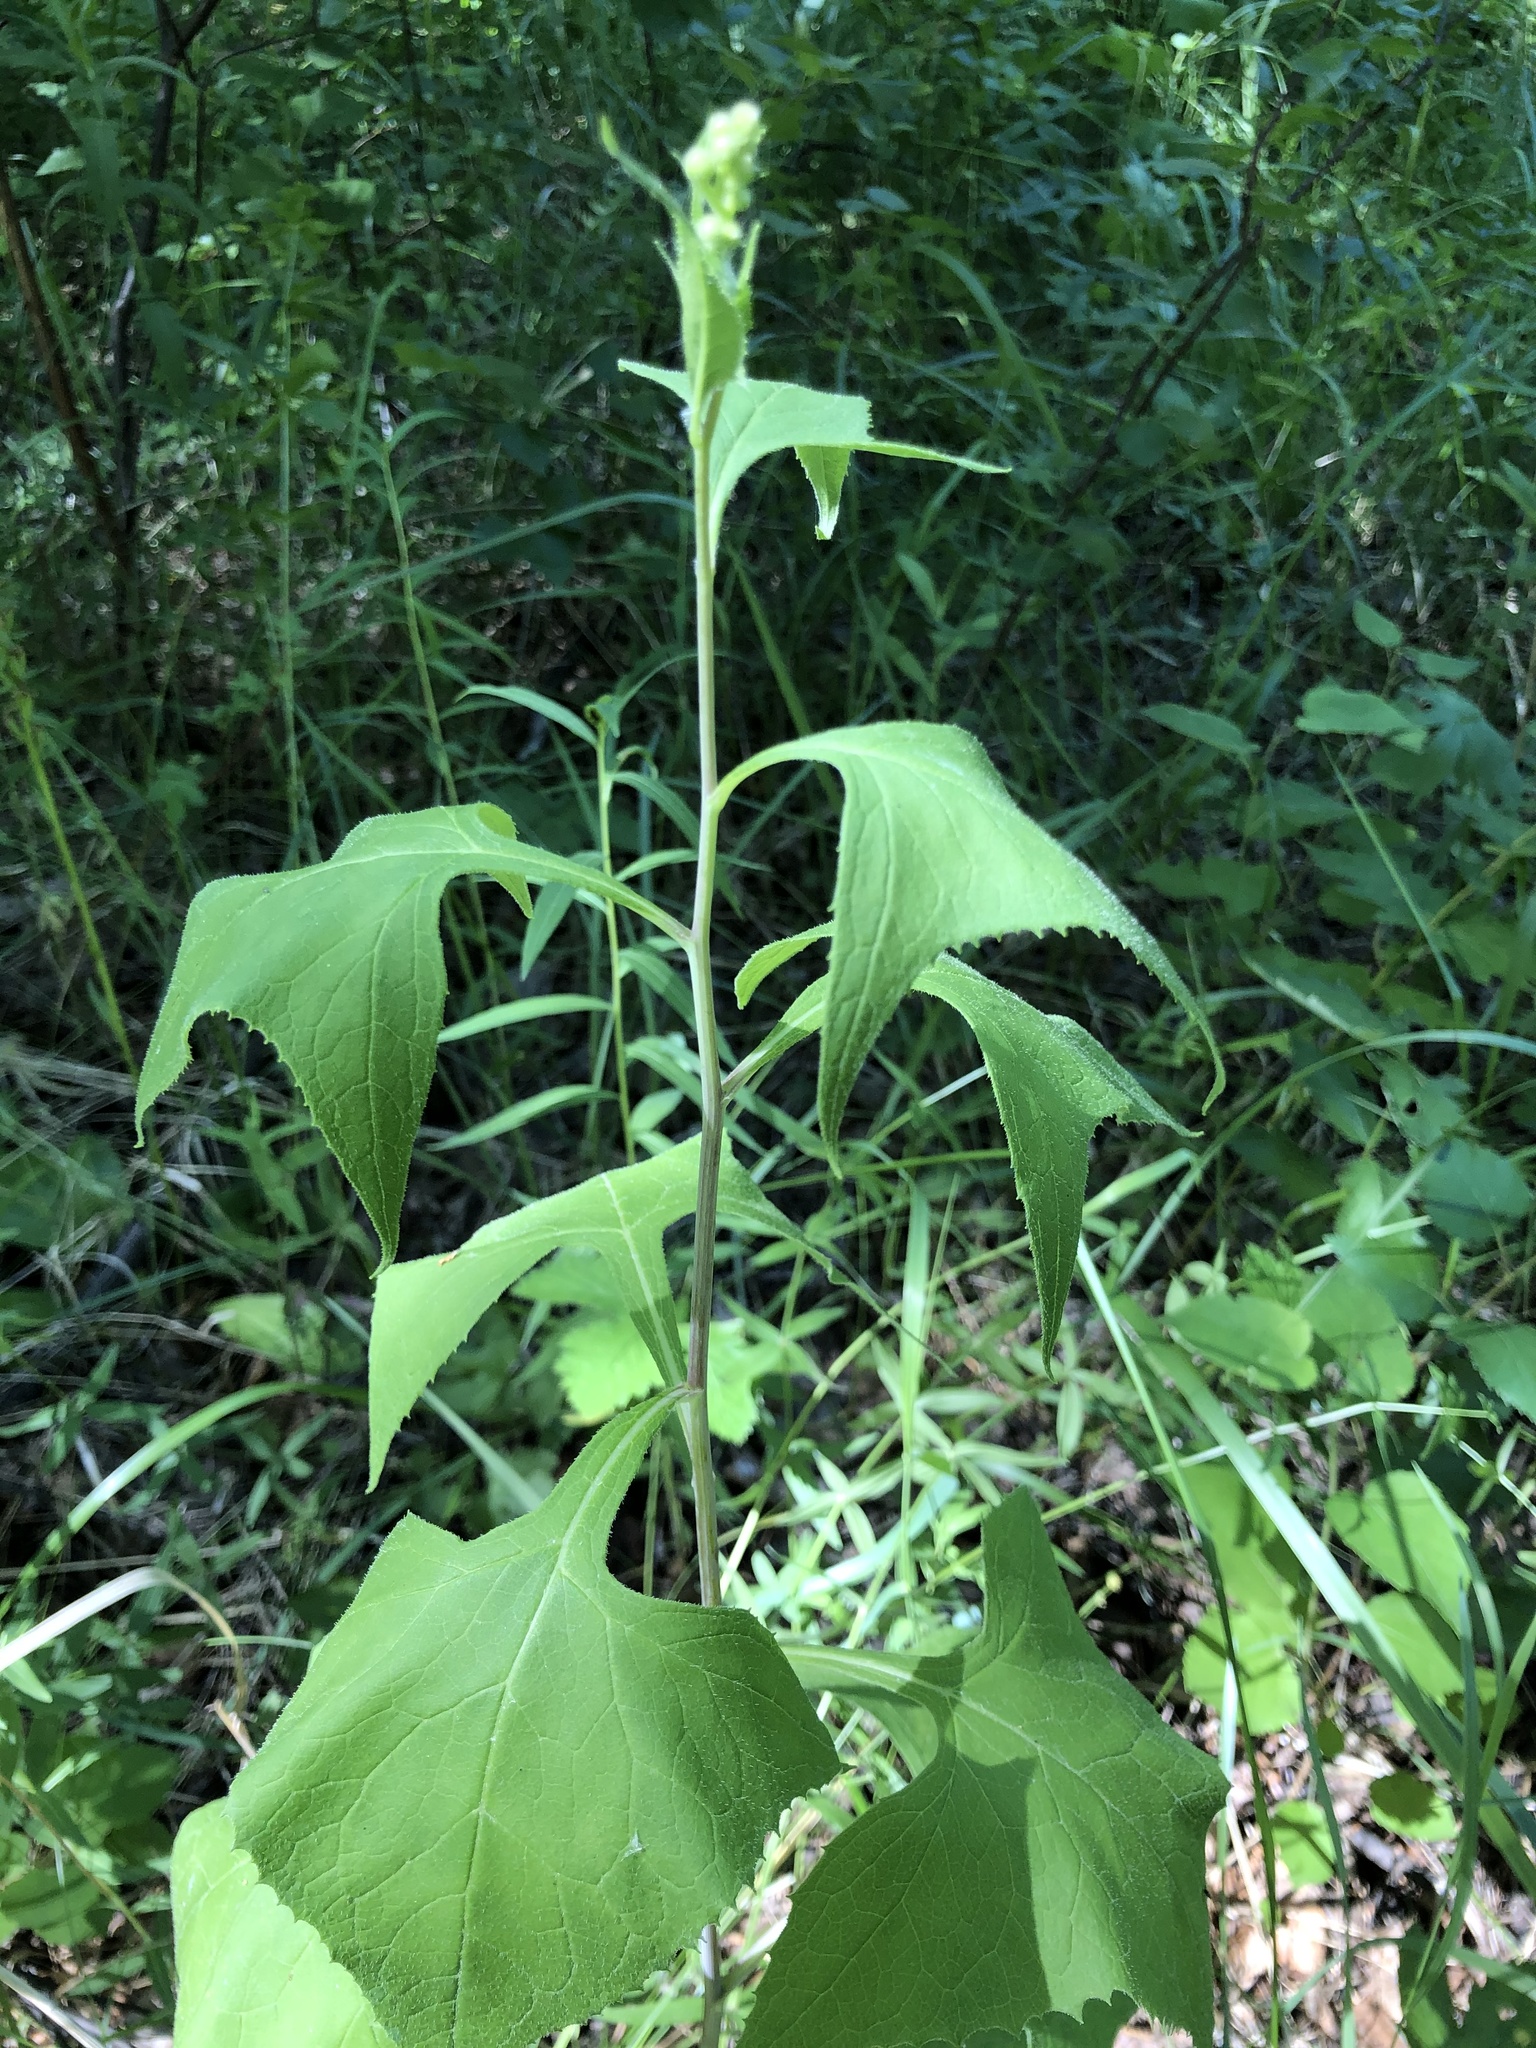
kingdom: Plantae
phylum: Tracheophyta
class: Magnoliopsida
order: Asterales
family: Asteraceae
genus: Parasenecio
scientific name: Parasenecio hastatus
